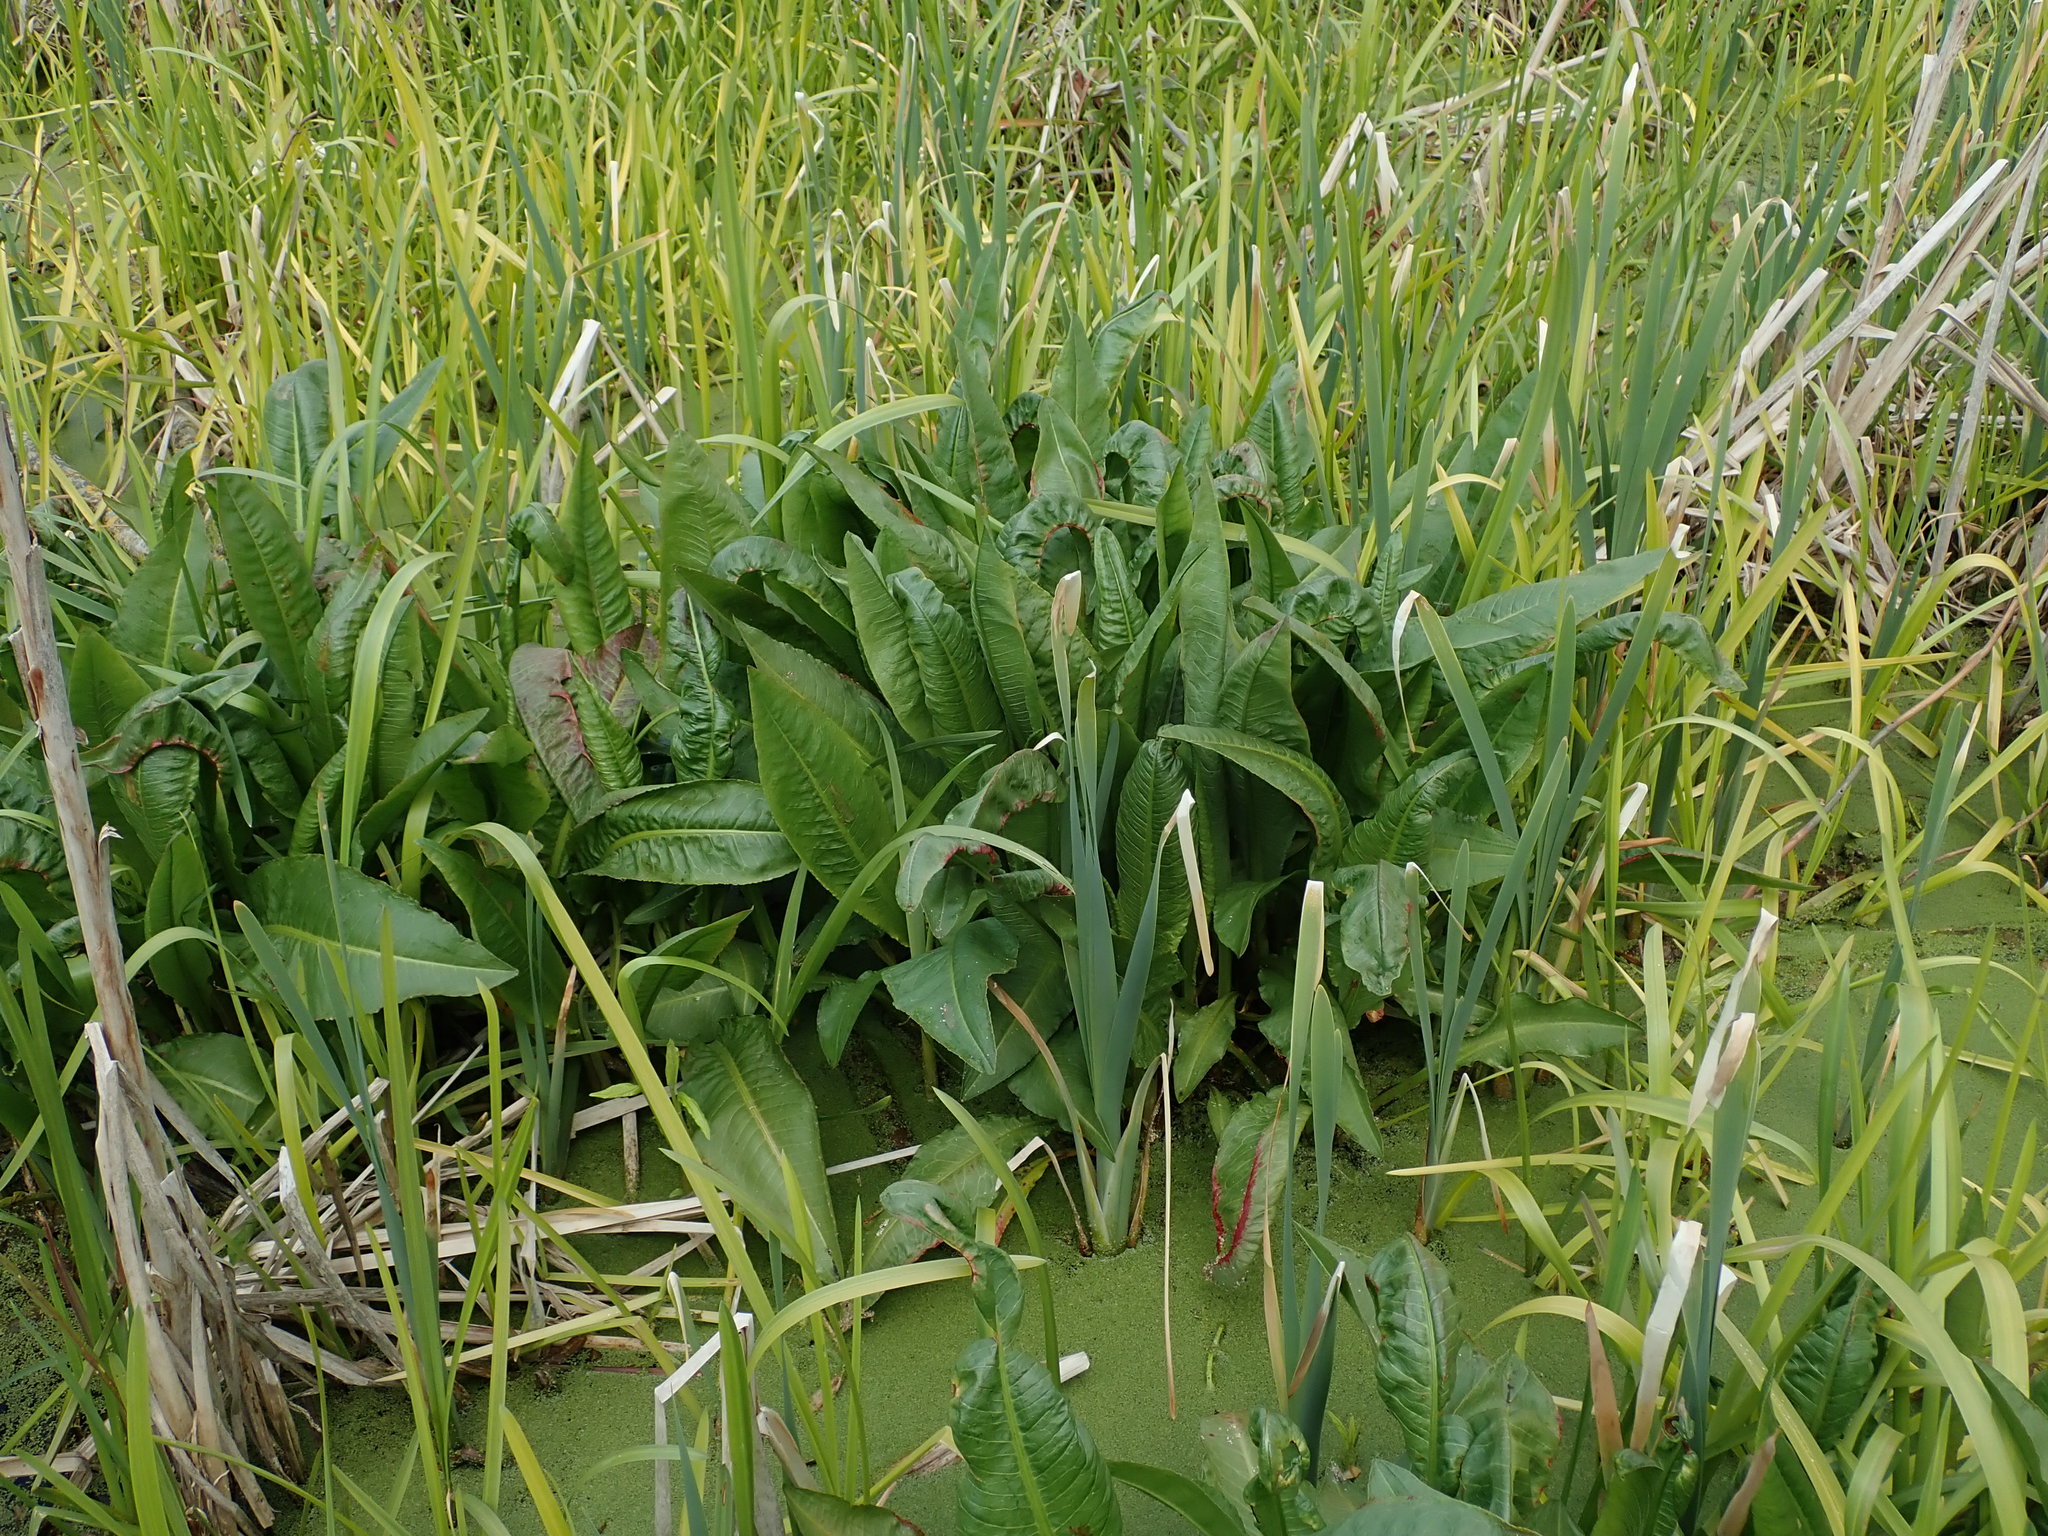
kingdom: Plantae
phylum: Tracheophyta
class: Magnoliopsida
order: Caryophyllales
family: Polygonaceae
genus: Rumex
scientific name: Rumex hydrolapathum
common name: Water dock
